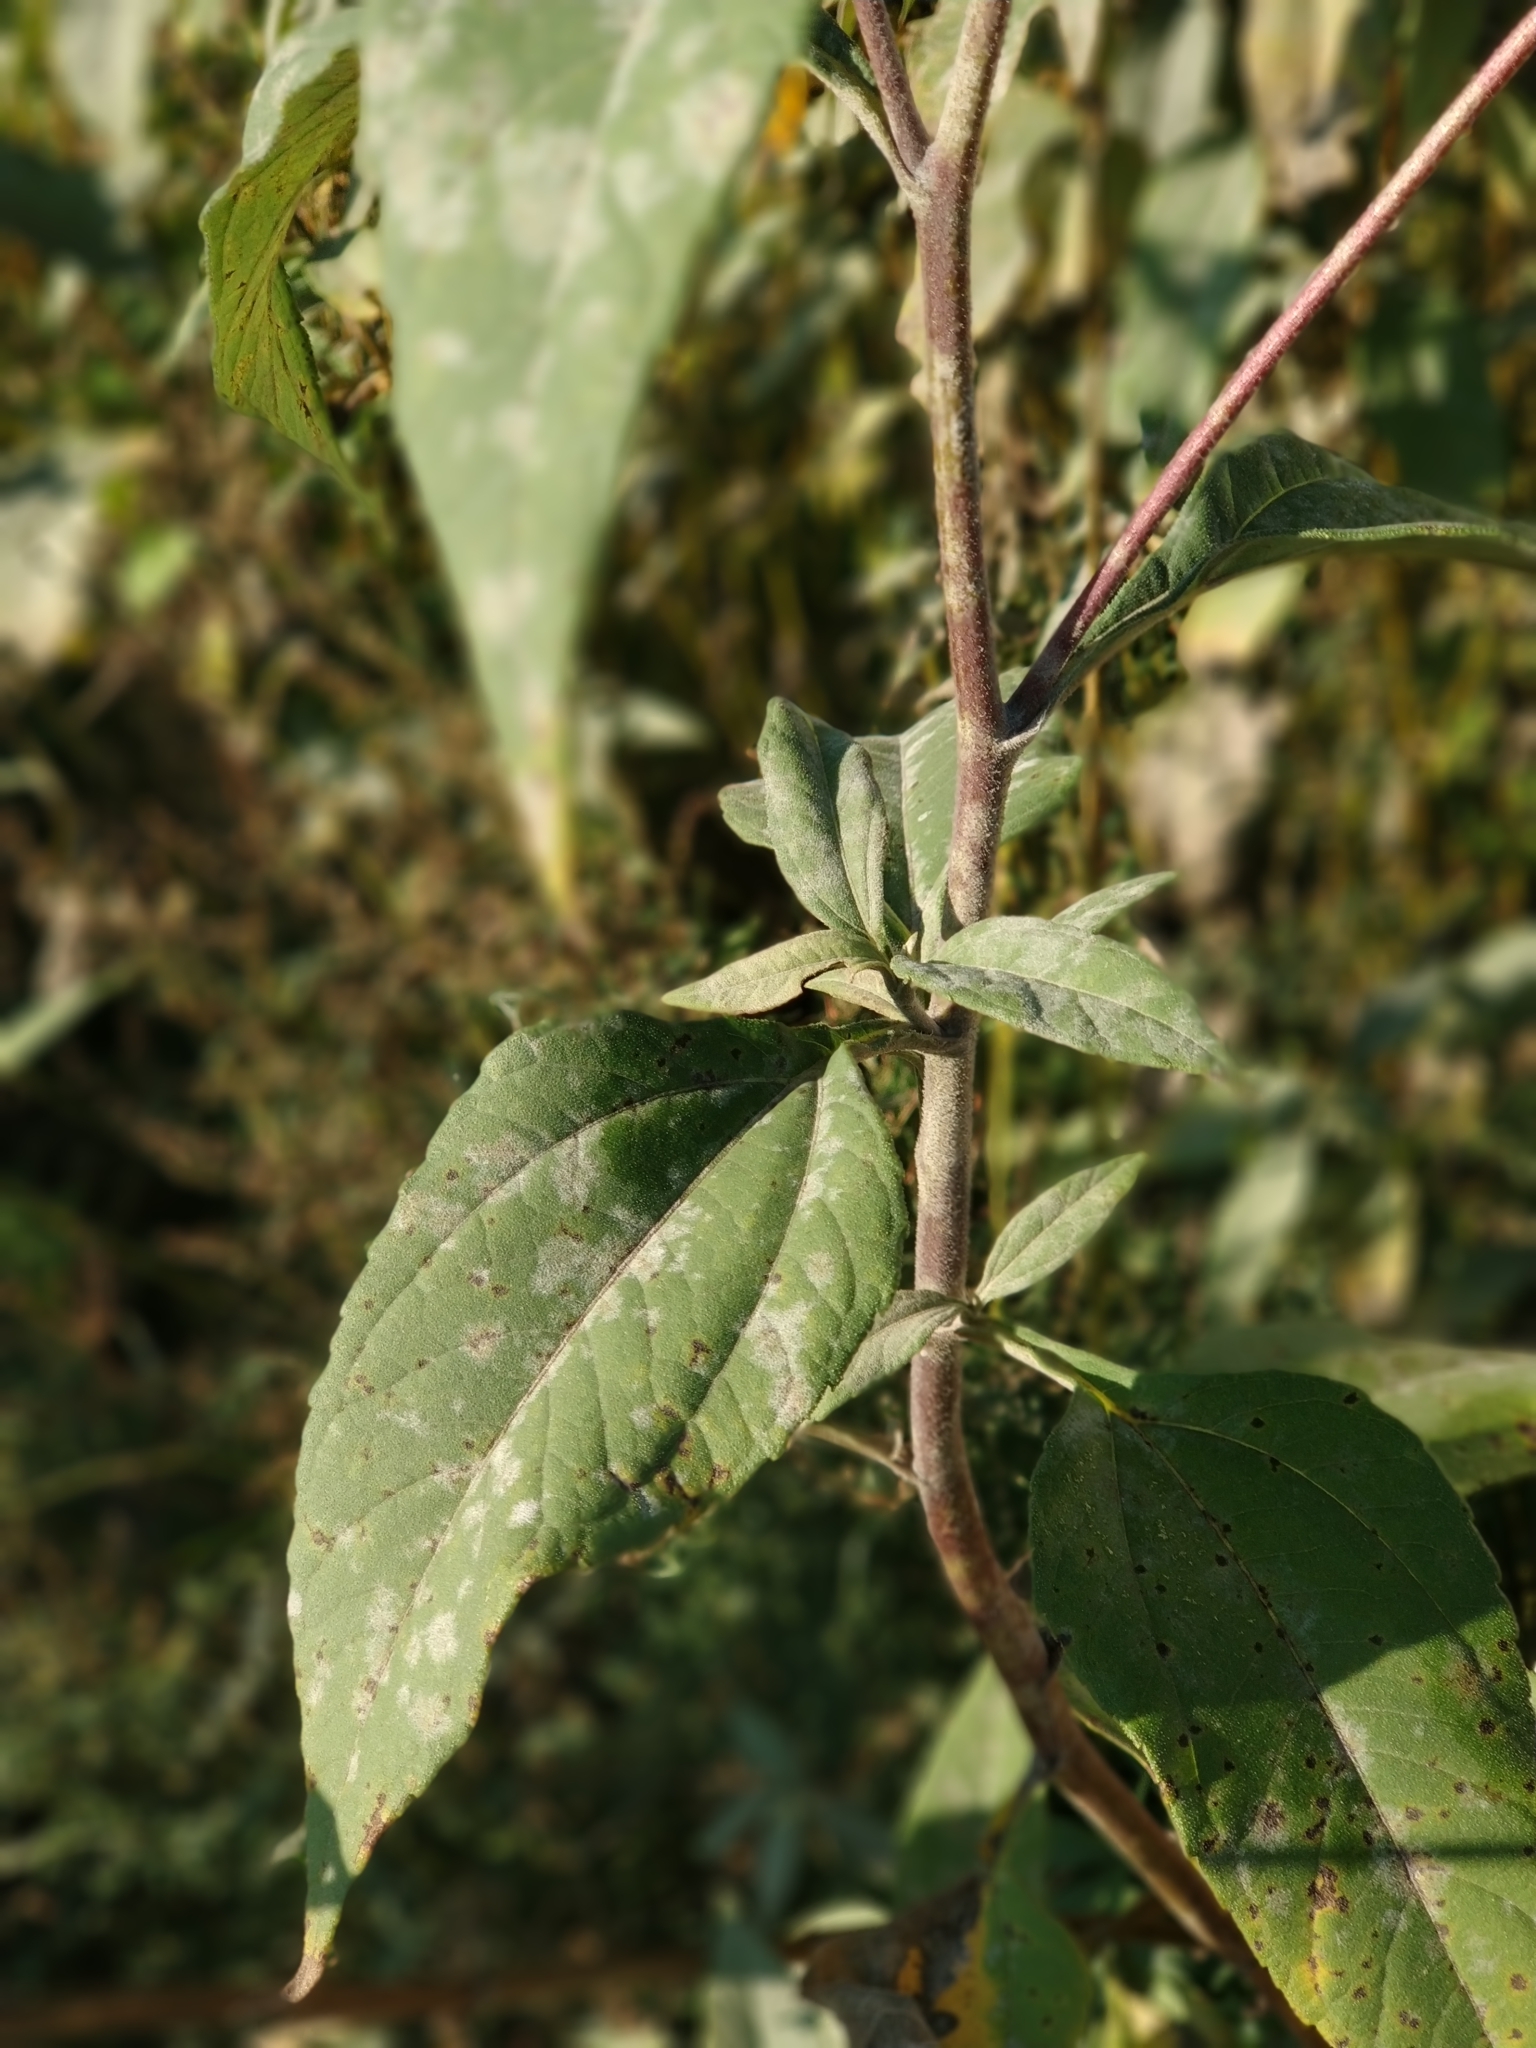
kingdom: Plantae
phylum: Tracheophyta
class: Magnoliopsida
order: Asterales
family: Asteraceae
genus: Helianthus
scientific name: Helianthus tuberosus
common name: Jerusalem artichoke
